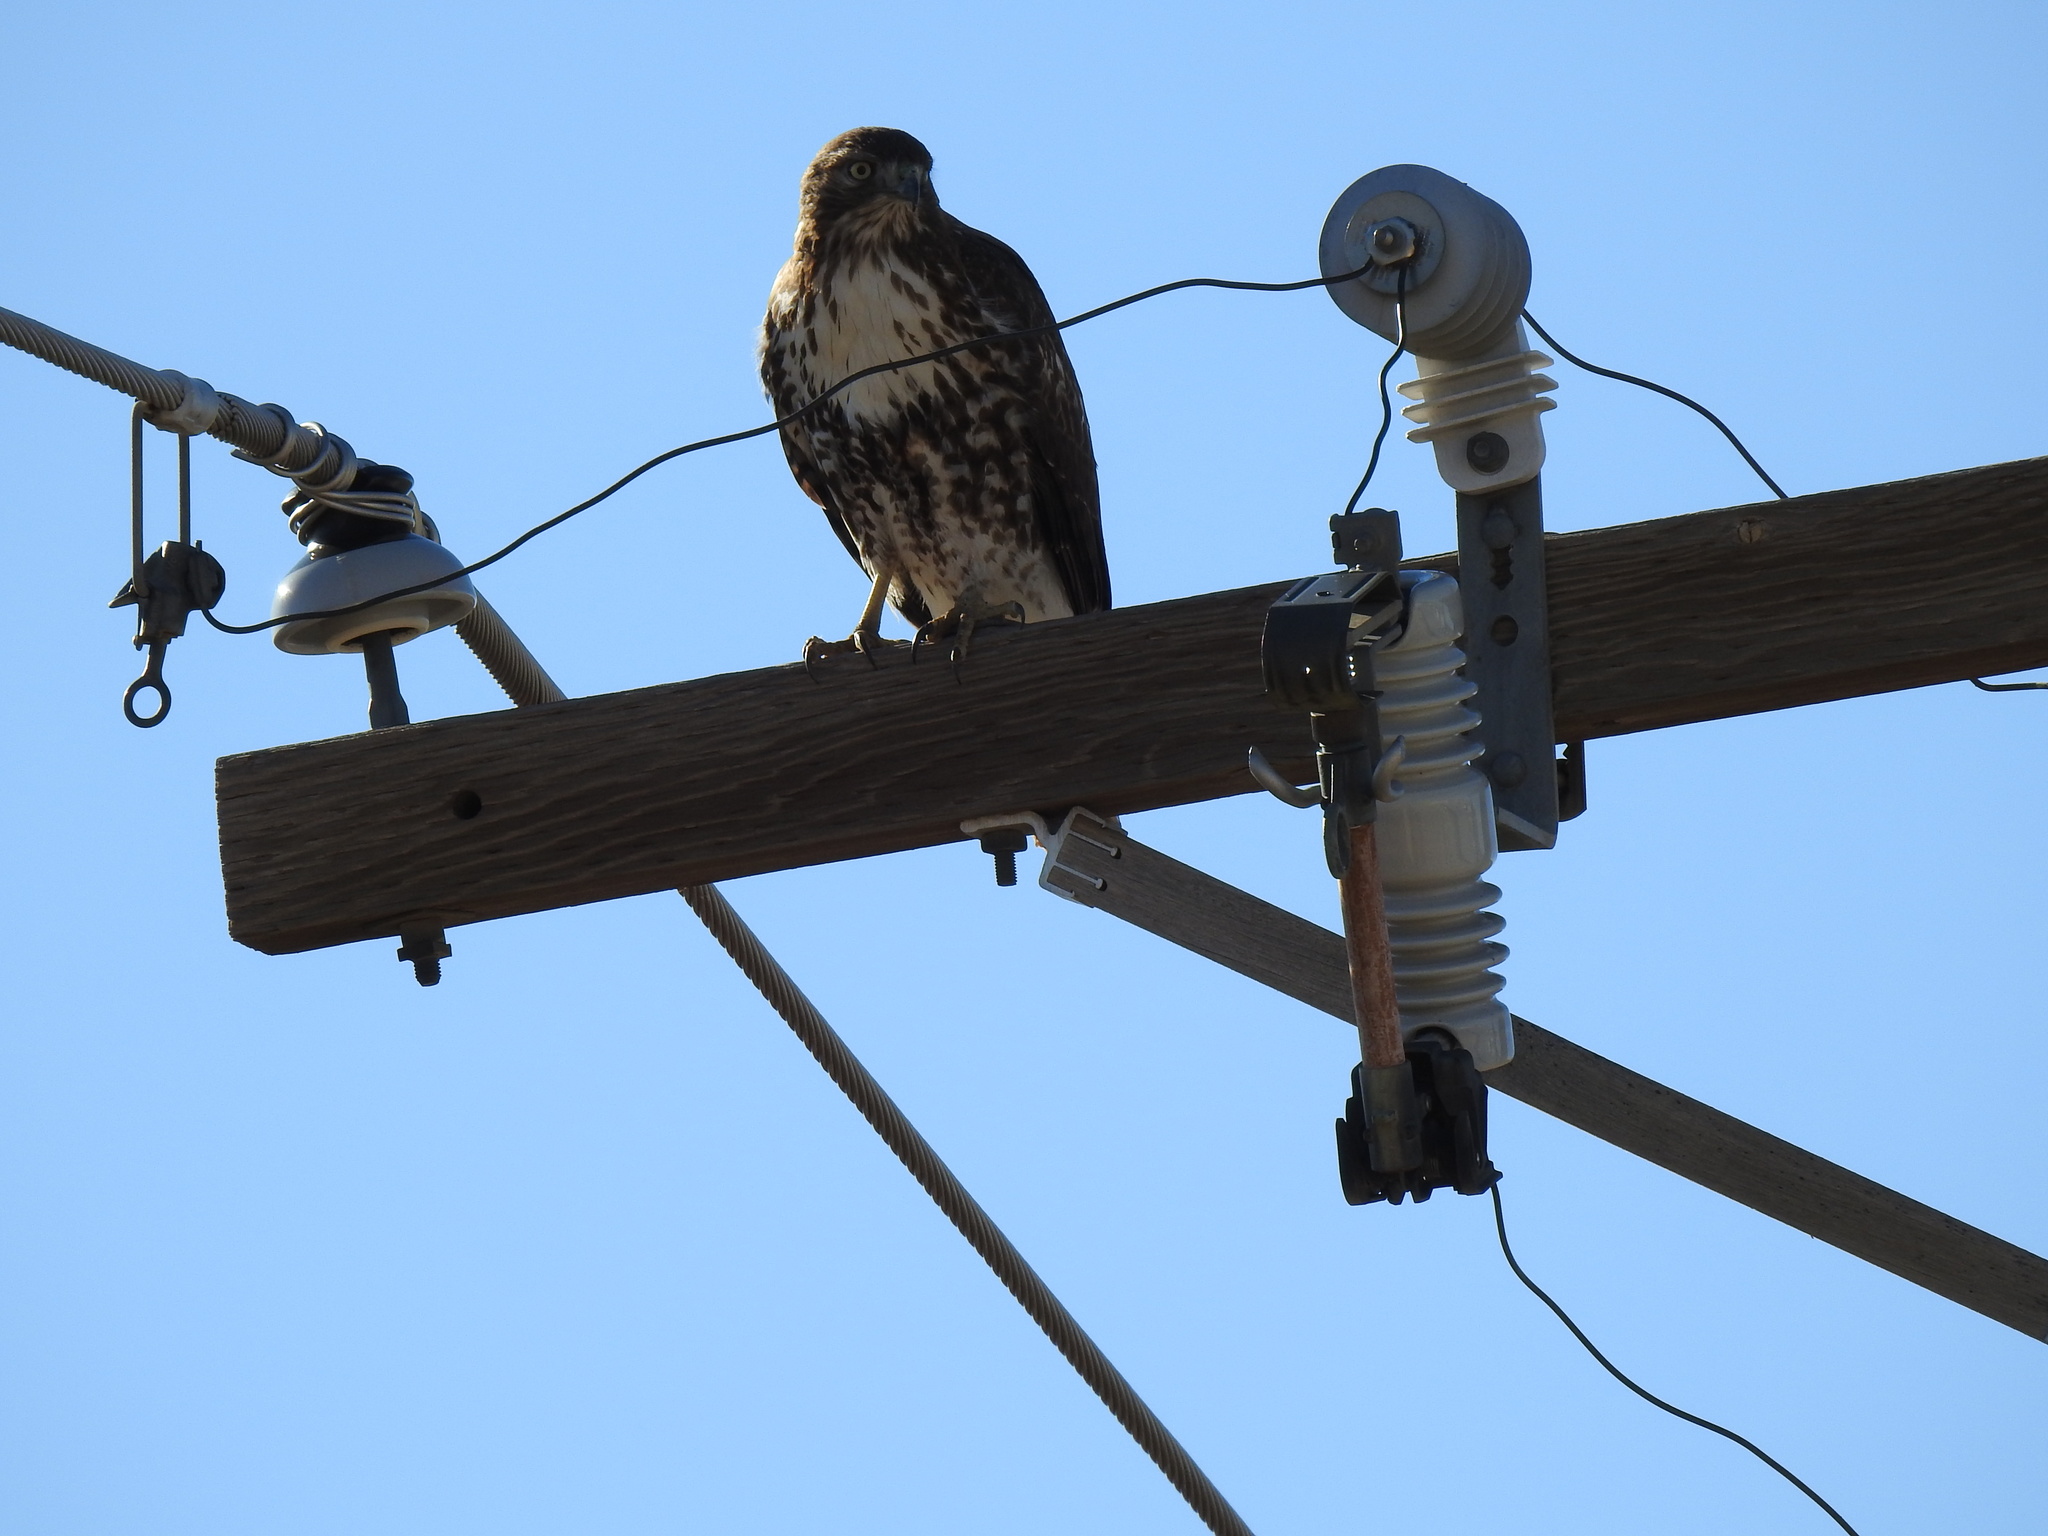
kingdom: Animalia
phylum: Chordata
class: Aves
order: Accipitriformes
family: Accipitridae
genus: Buteo
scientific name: Buteo jamaicensis
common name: Red-tailed hawk
